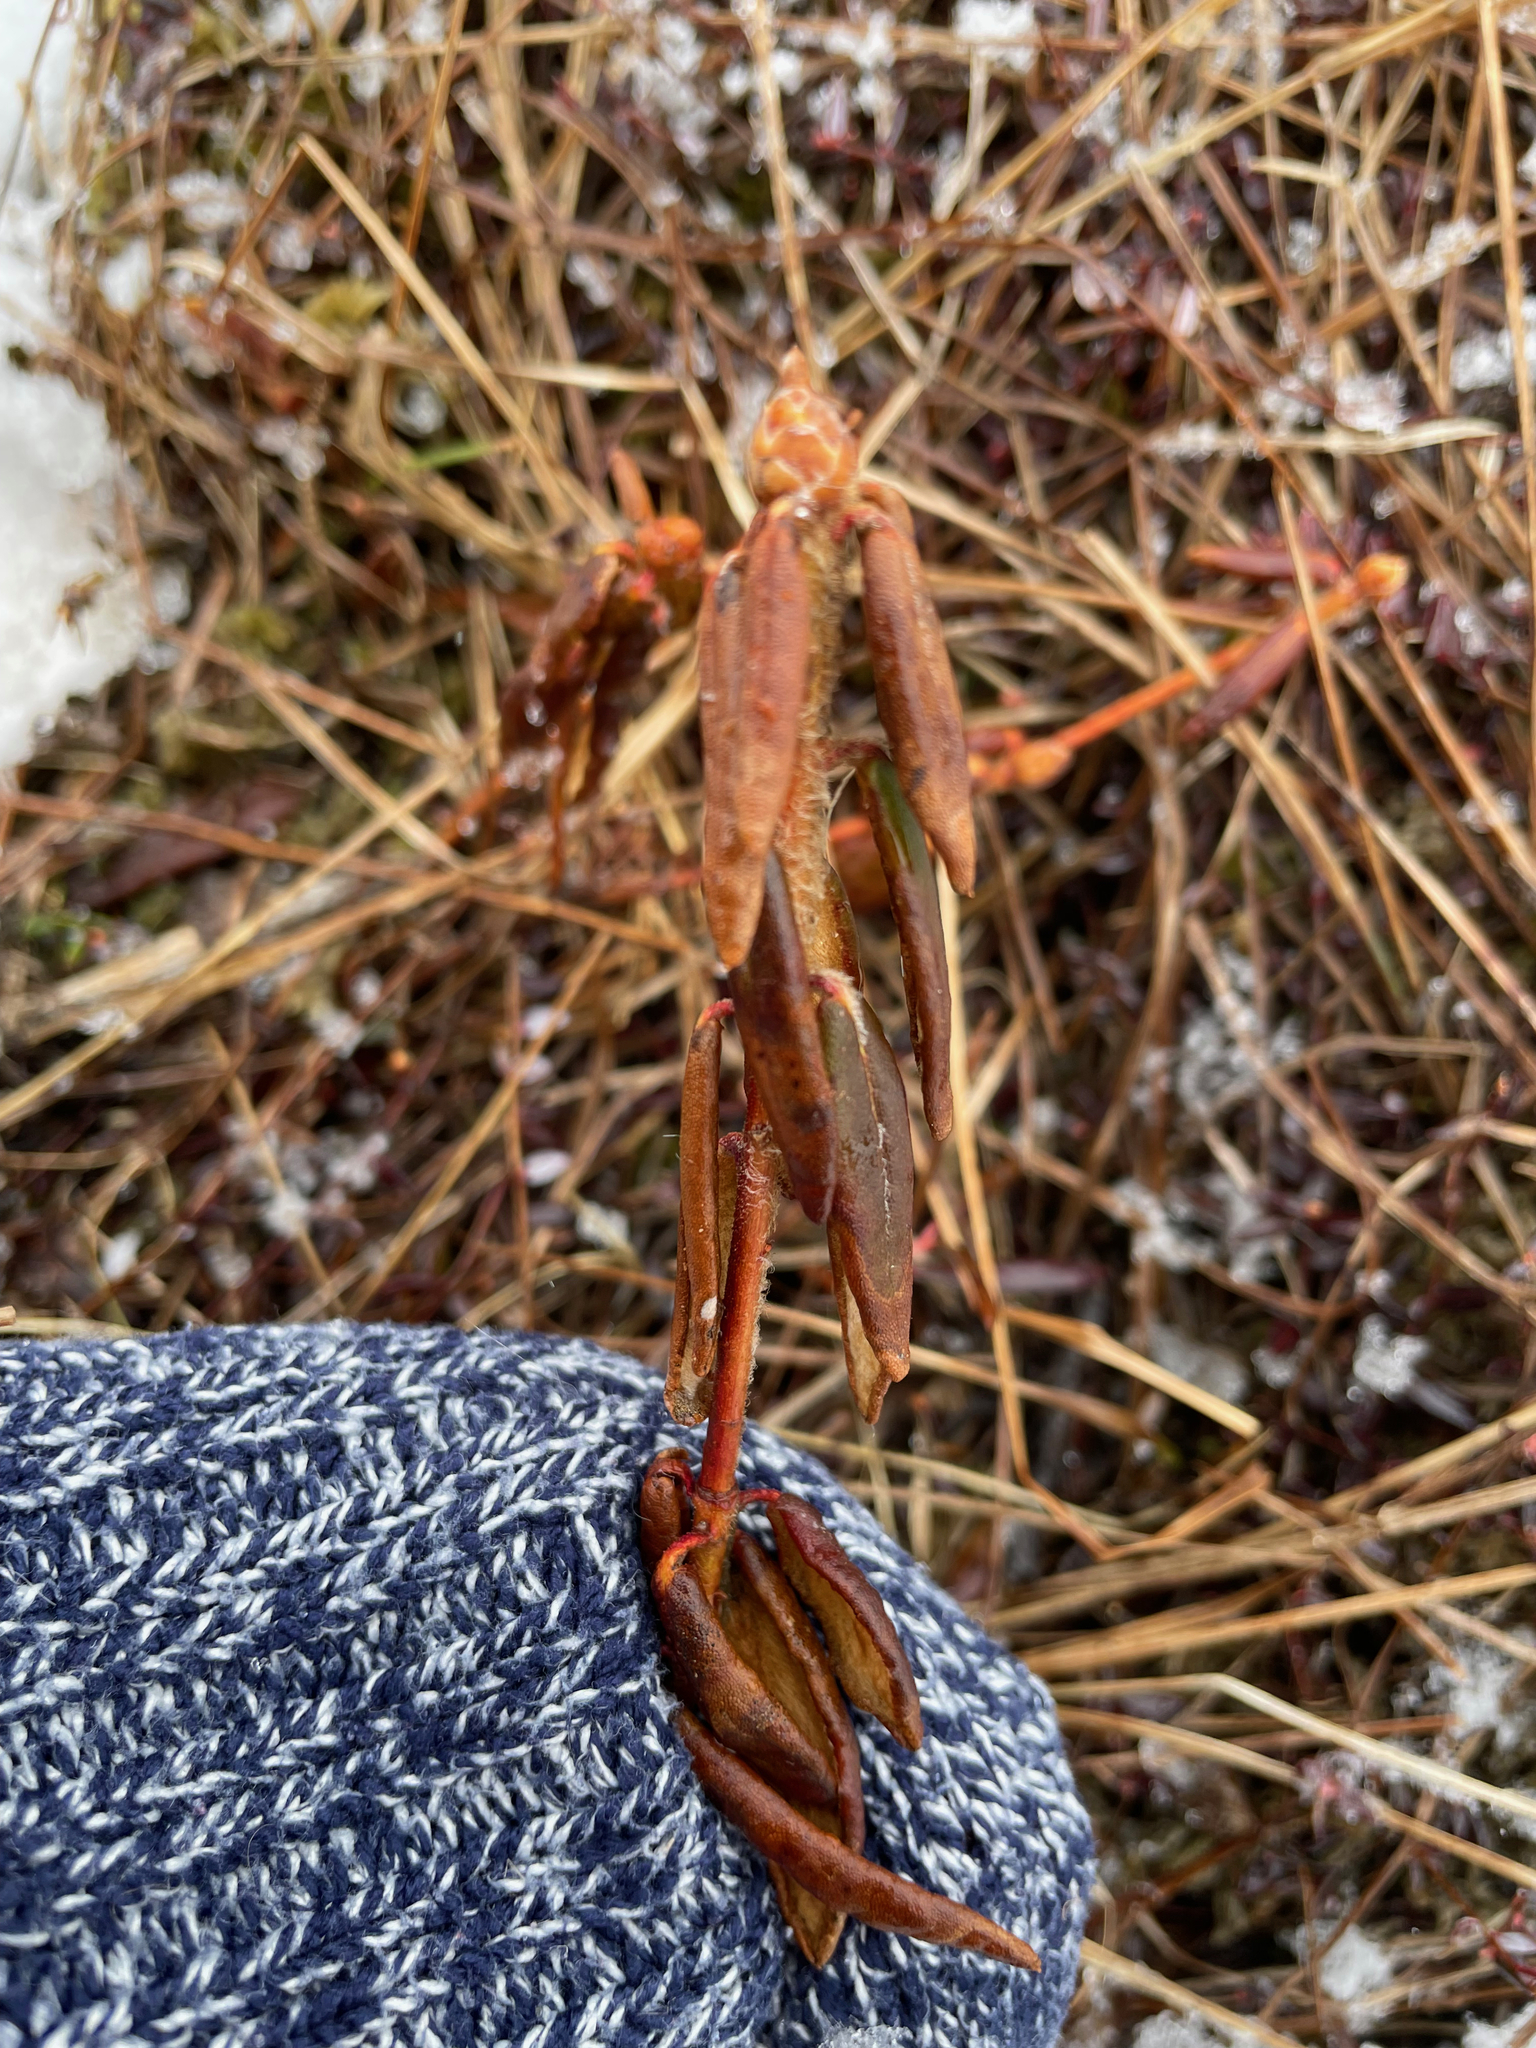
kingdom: Plantae
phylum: Tracheophyta
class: Magnoliopsida
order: Ericales
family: Ericaceae
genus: Rhododendron
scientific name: Rhododendron groenlandicum
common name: Bog labrador tea
